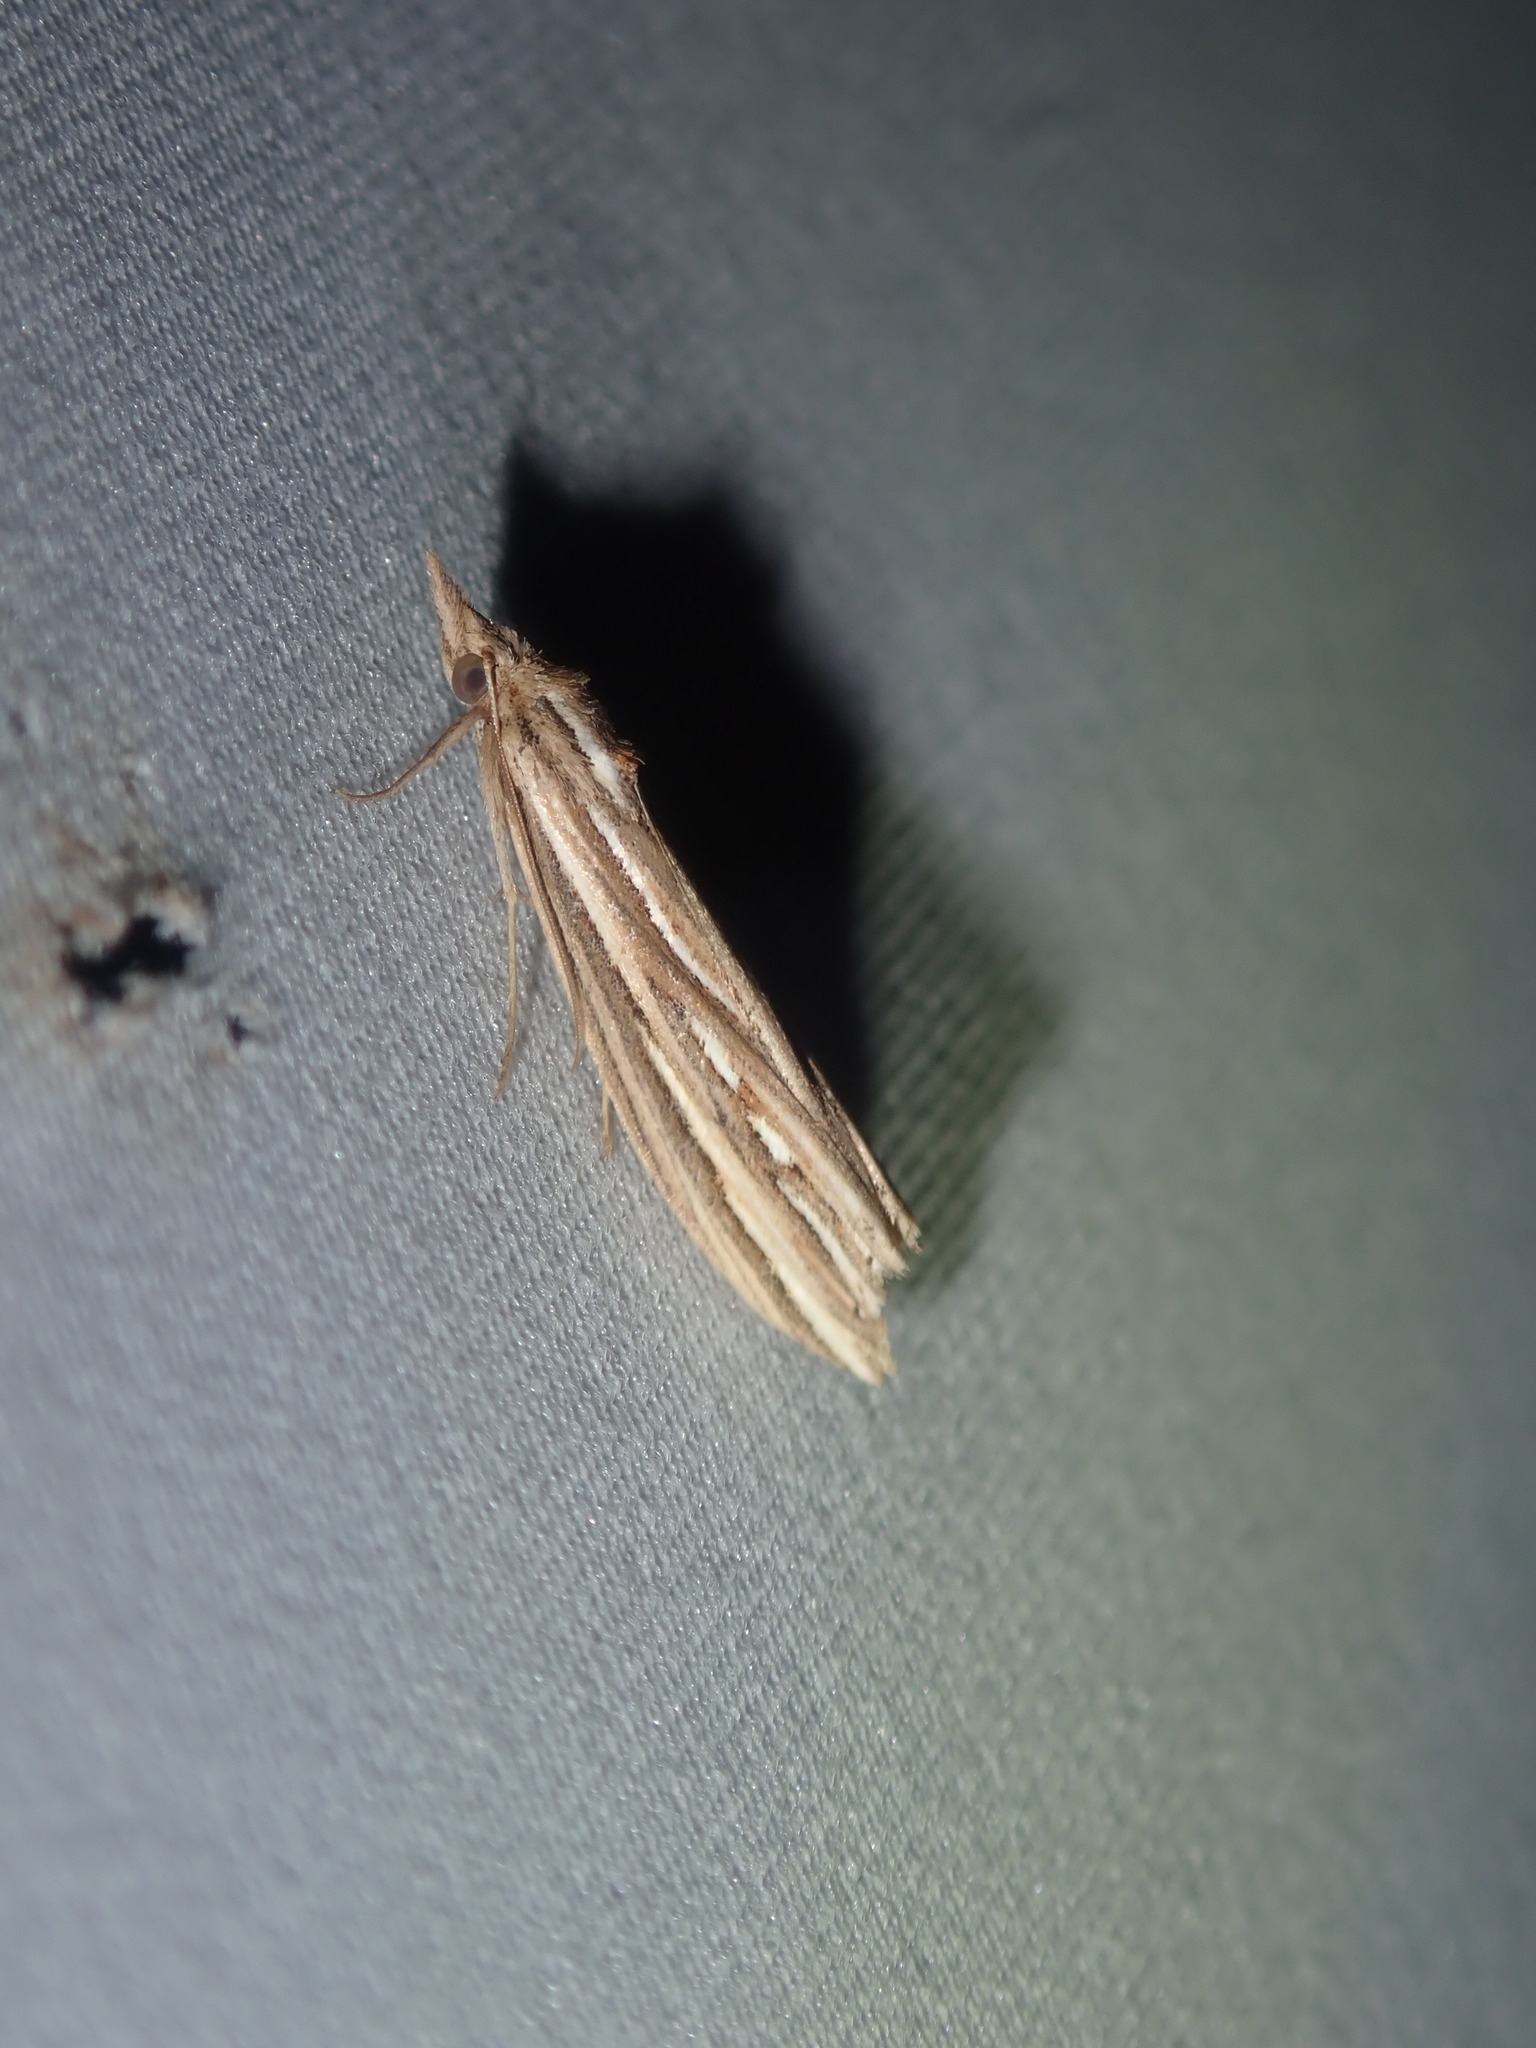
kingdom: Animalia
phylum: Arthropoda
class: Insecta
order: Lepidoptera
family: Erebidae
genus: Meyrickella
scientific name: Meyrickella ruptellus
